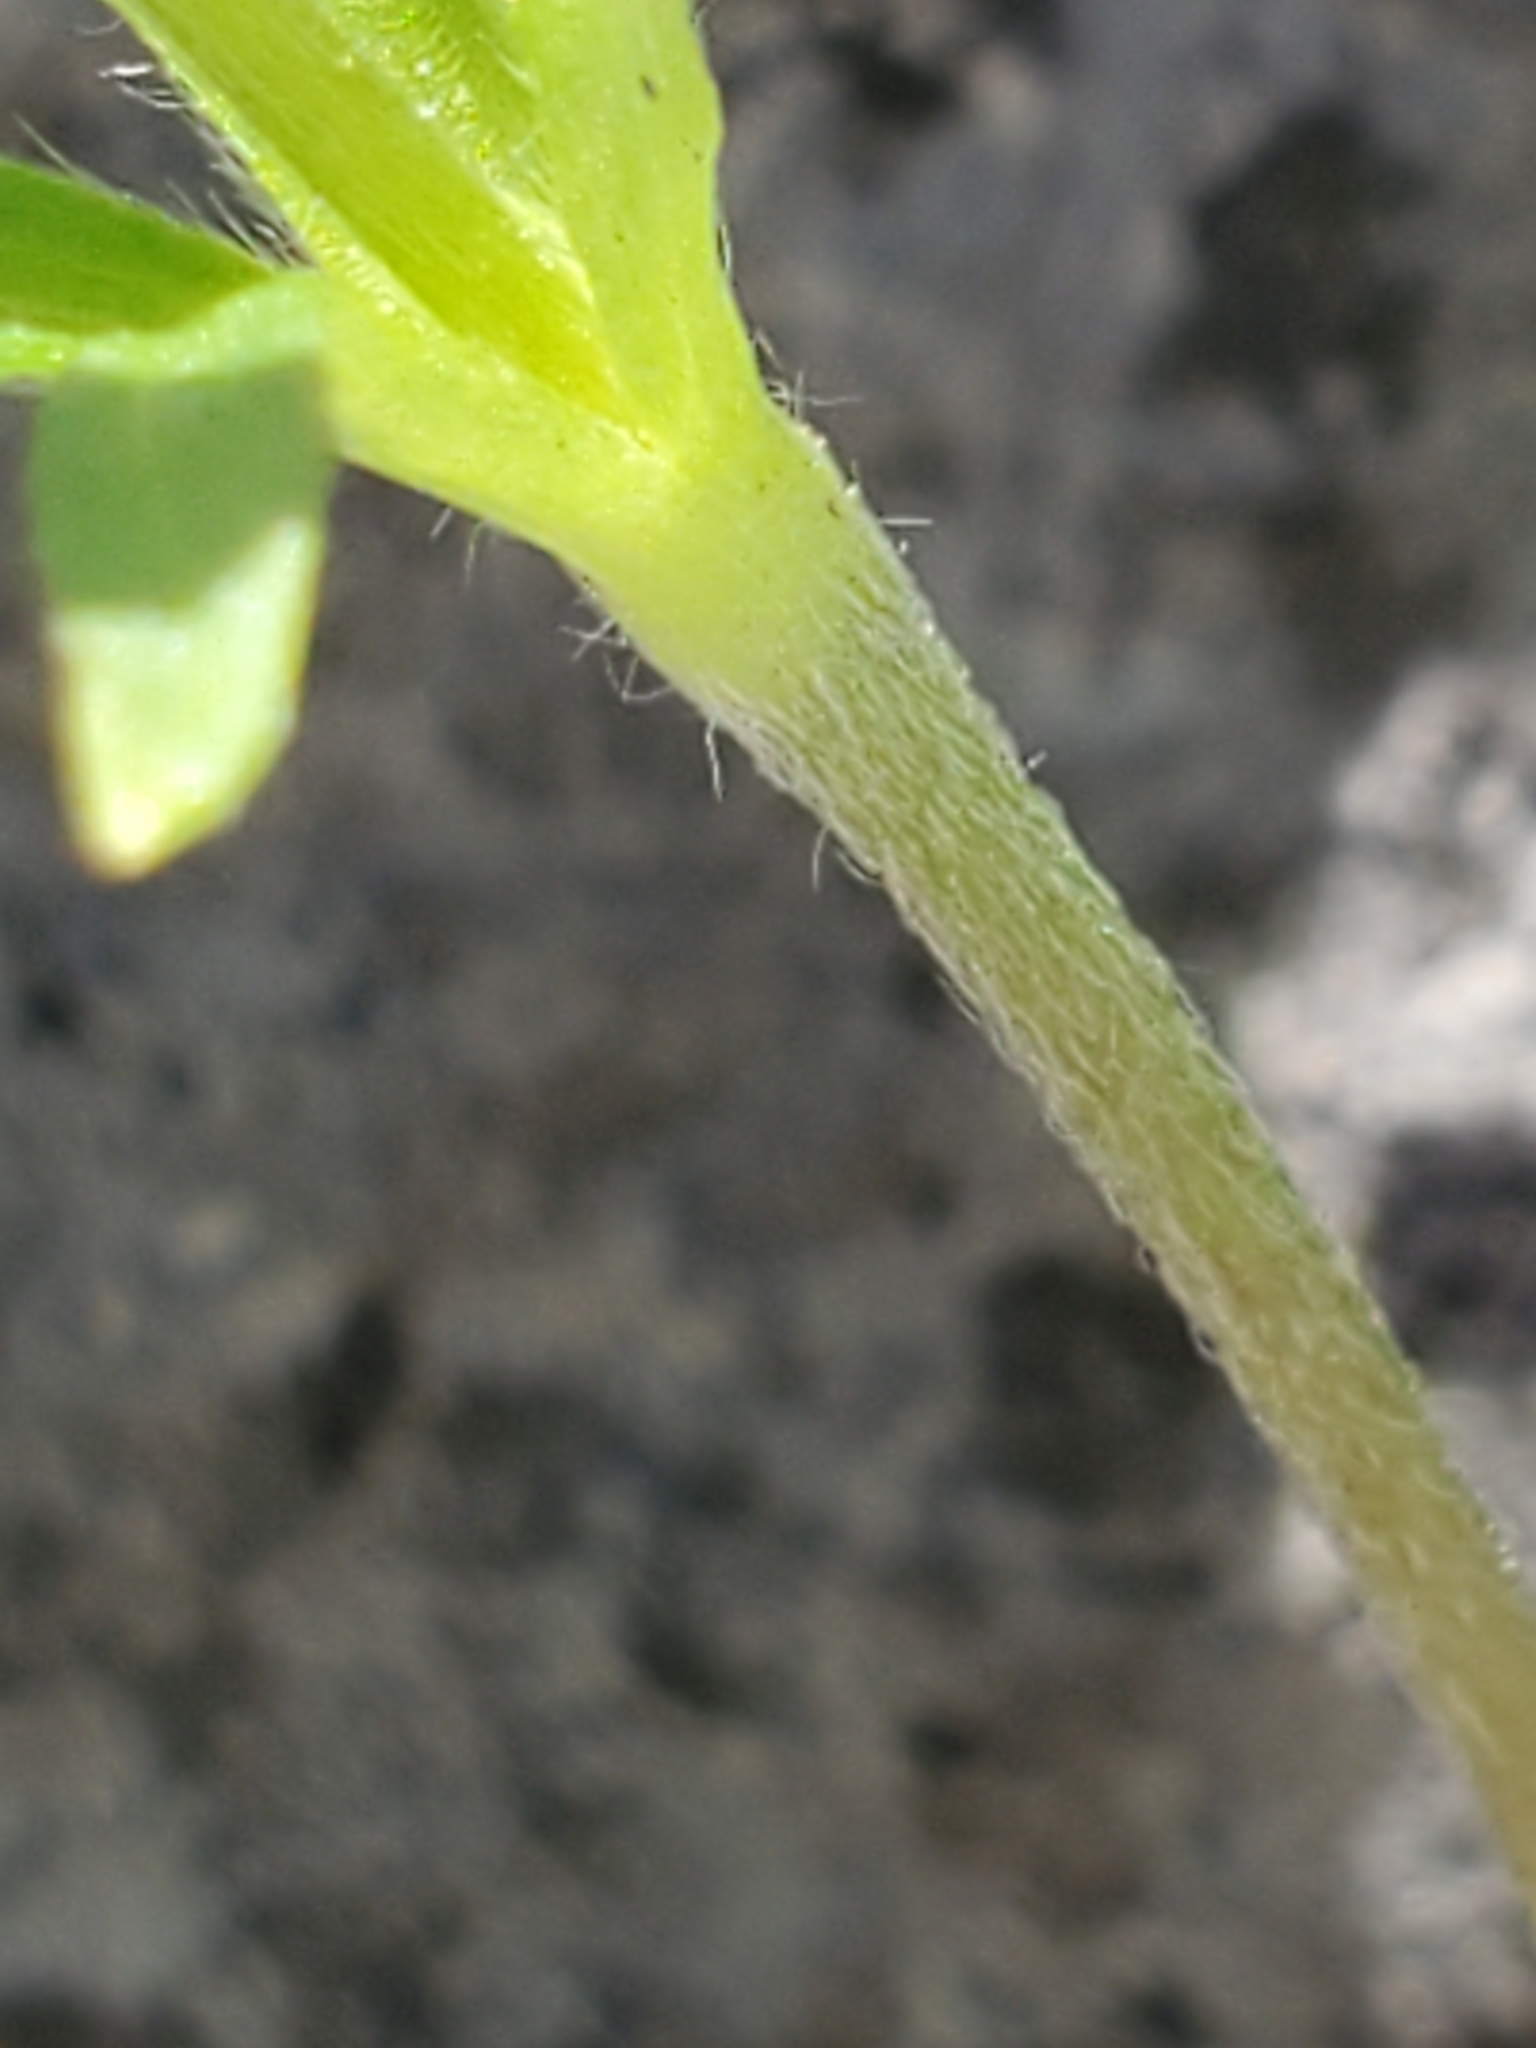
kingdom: Plantae
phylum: Tracheophyta
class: Magnoliopsida
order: Ranunculales
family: Ranunculaceae
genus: Anemone
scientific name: Anemone edwardsiana
